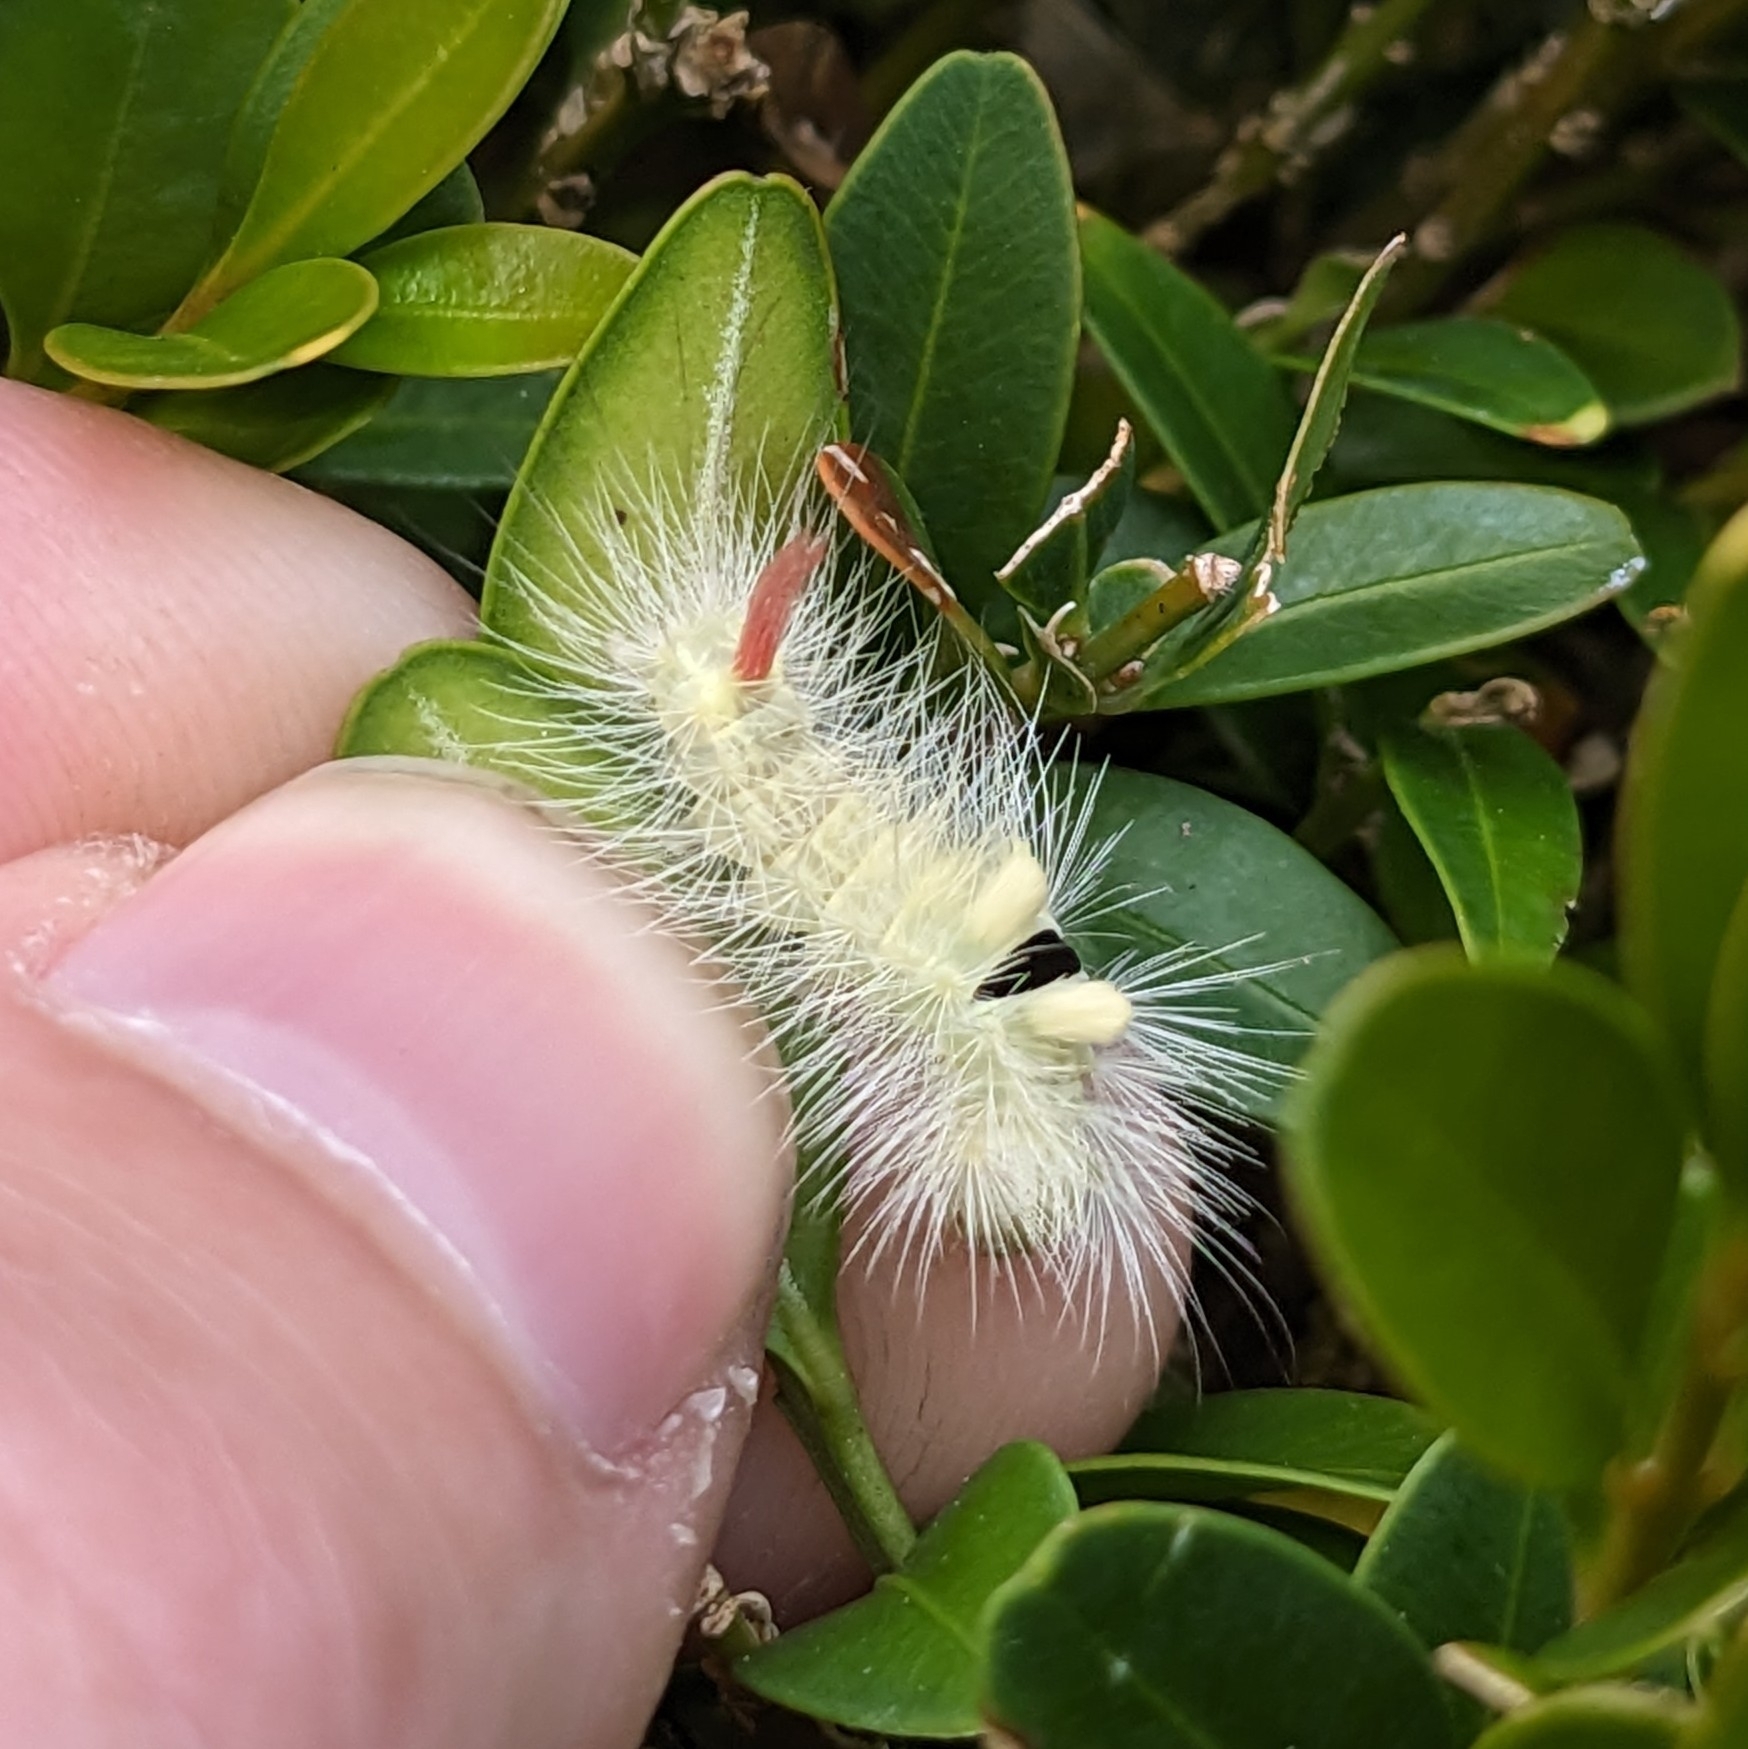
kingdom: Animalia
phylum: Arthropoda
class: Insecta
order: Lepidoptera
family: Erebidae
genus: Calliteara
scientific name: Calliteara pudibunda
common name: Pale tussock
